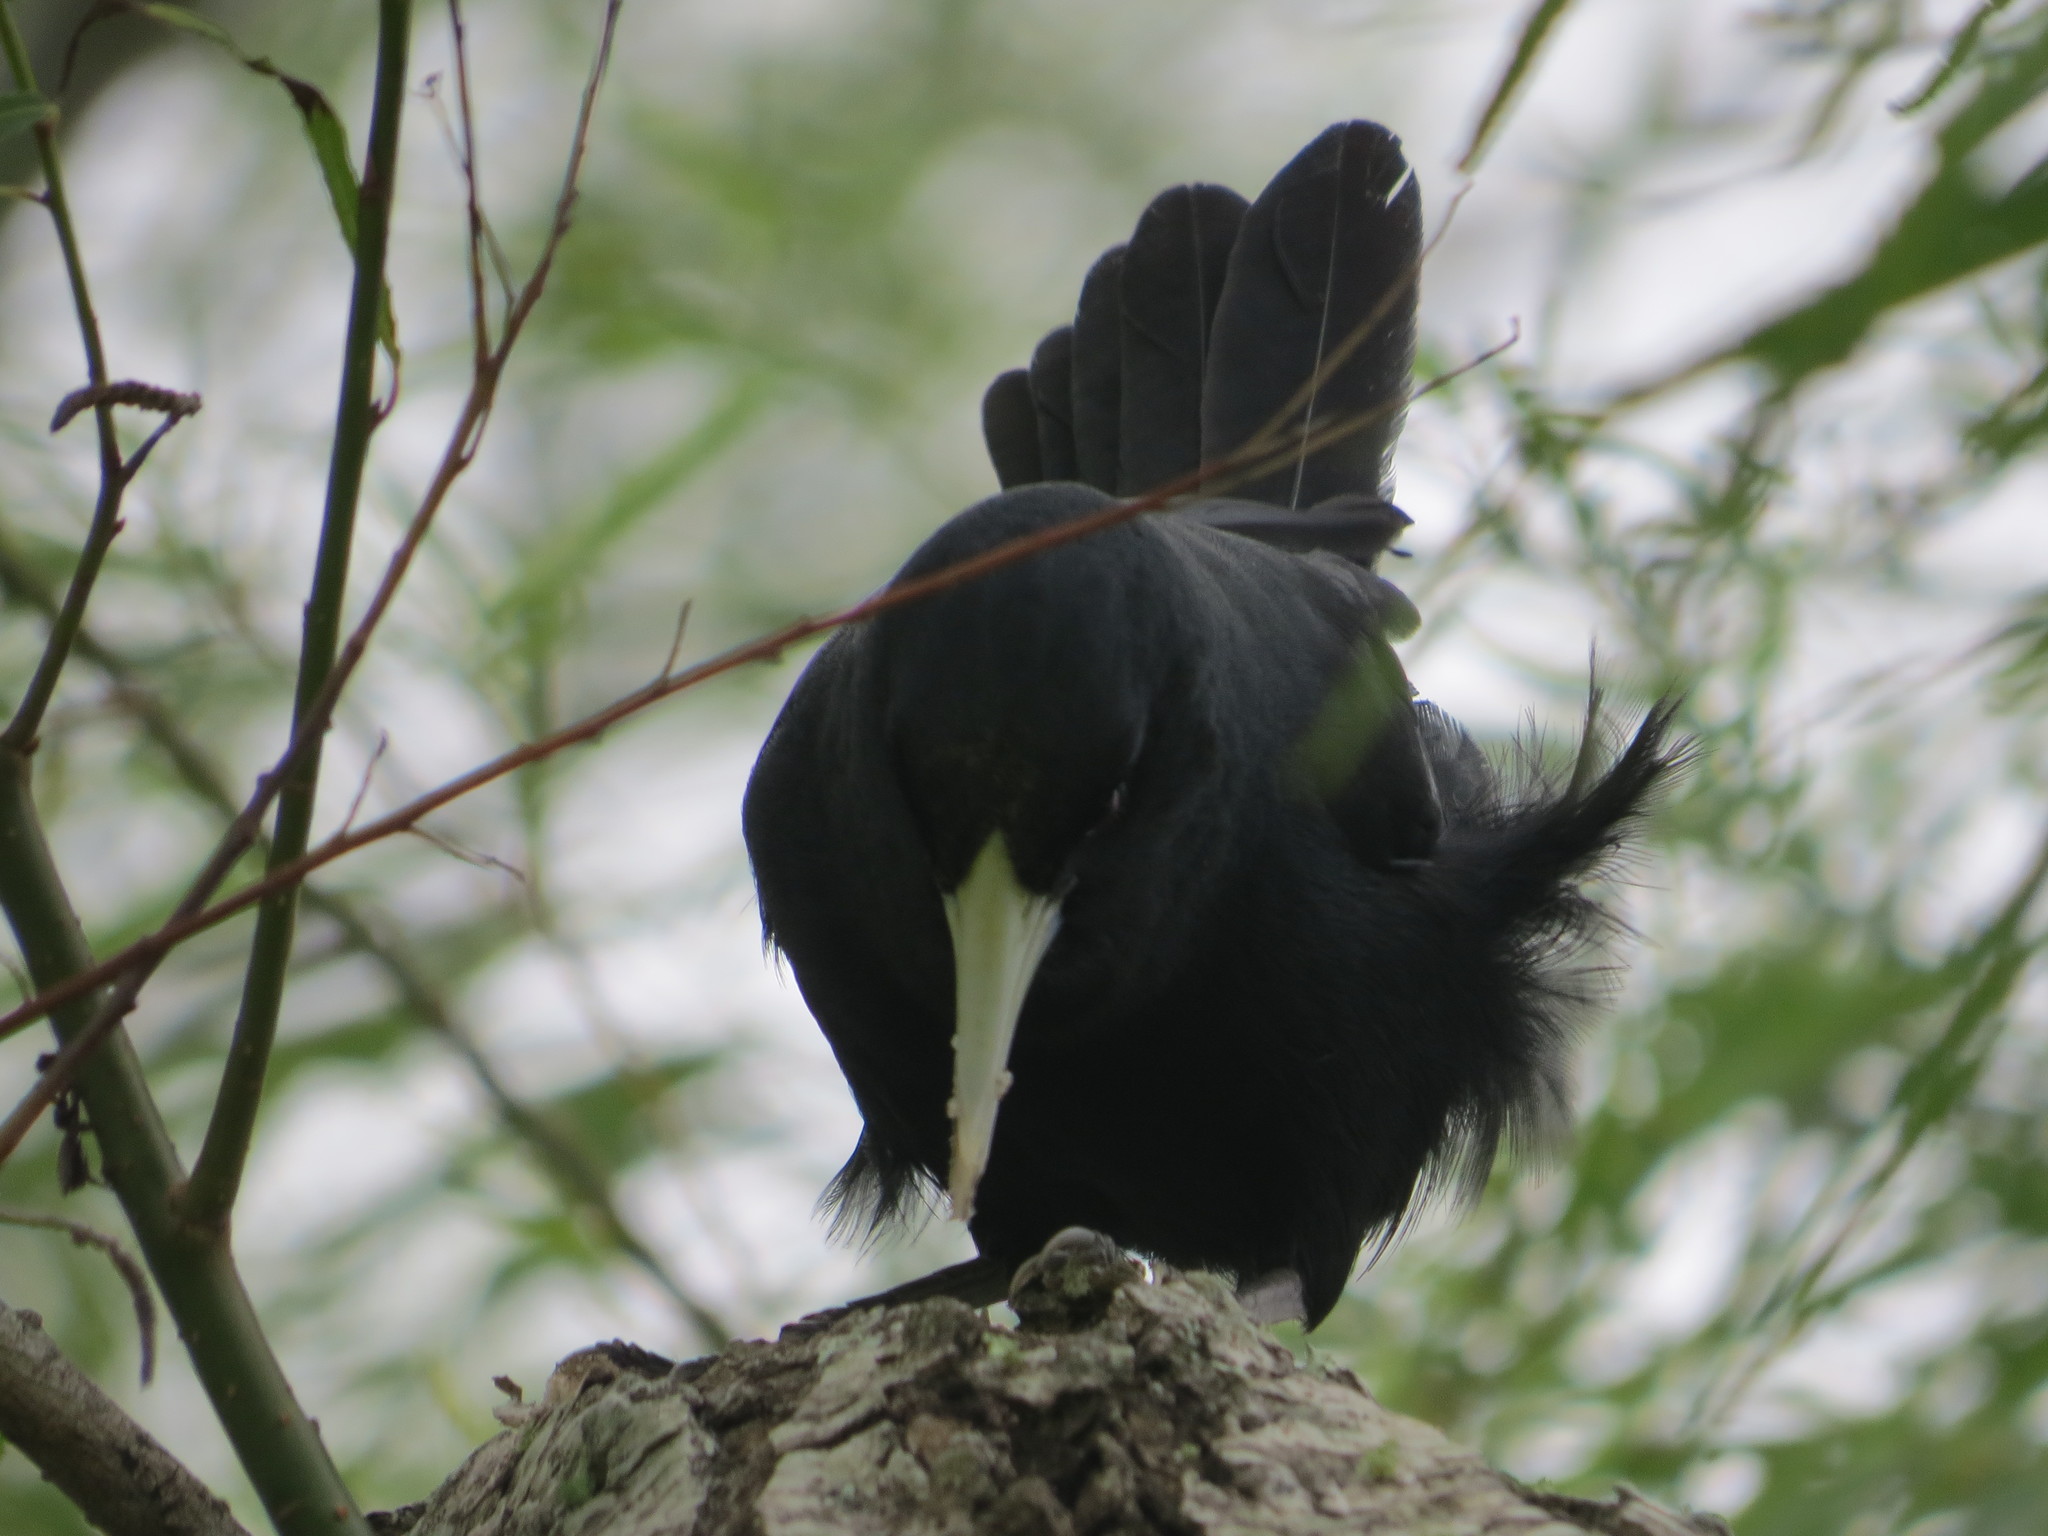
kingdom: Animalia
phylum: Chordata
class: Aves
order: Passeriformes
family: Icteridae
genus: Cacicus
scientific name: Cacicus solitarius
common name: Solitary cacique
